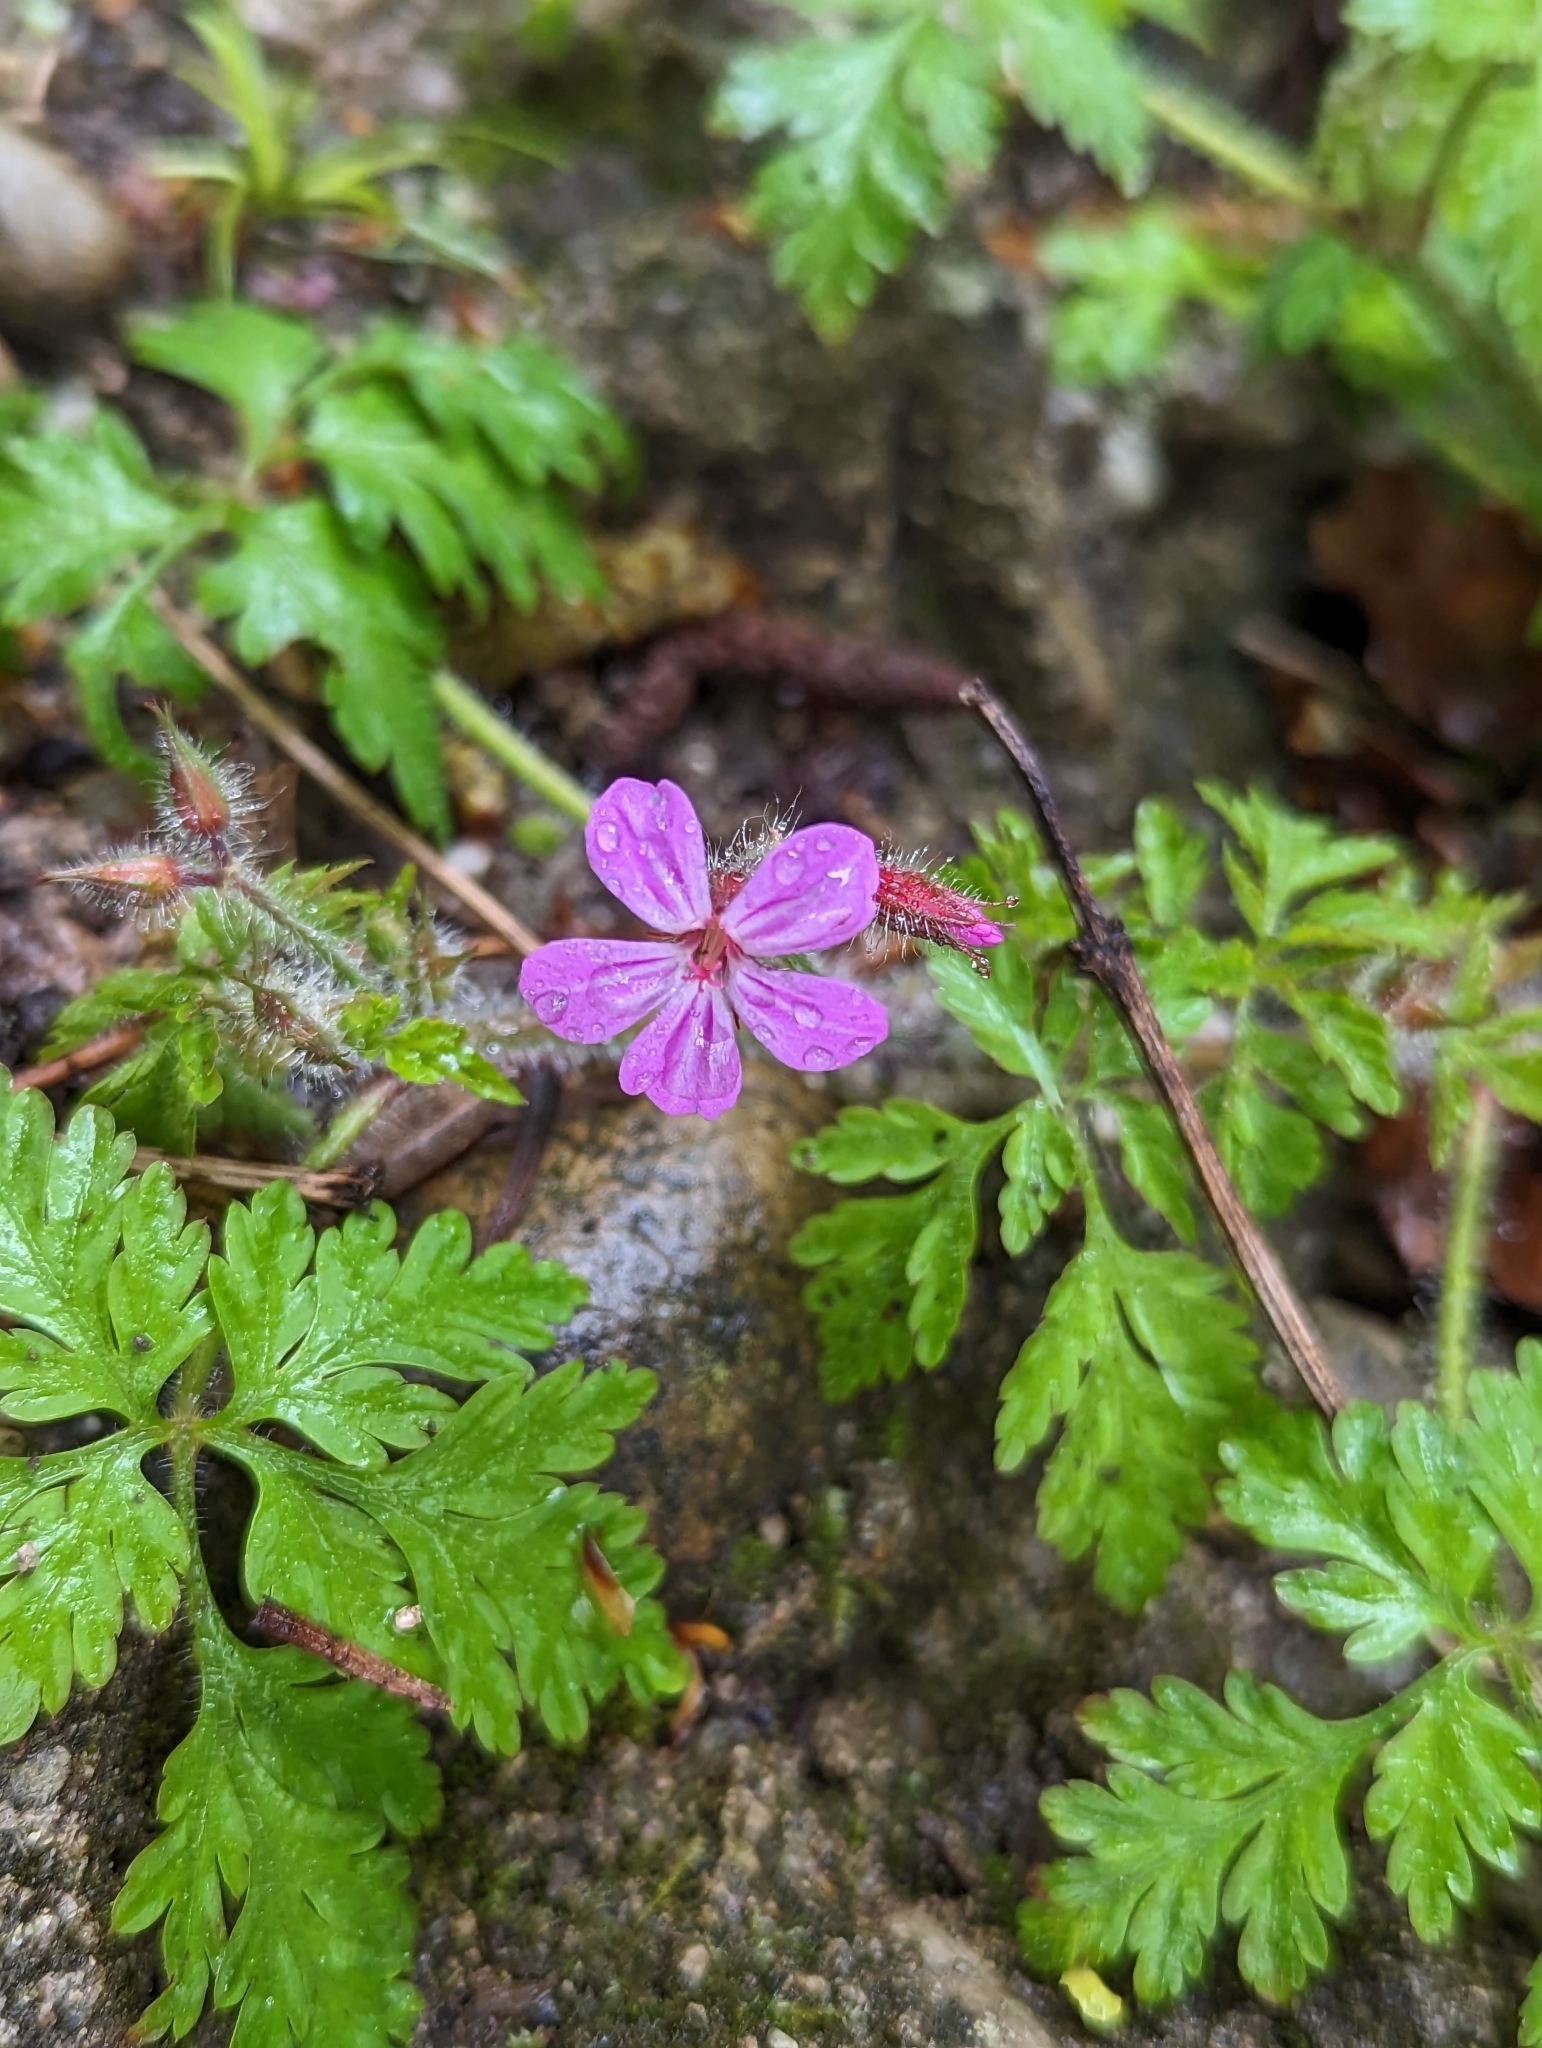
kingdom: Plantae
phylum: Tracheophyta
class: Magnoliopsida
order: Geraniales
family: Geraniaceae
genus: Geranium
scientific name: Geranium robertianum
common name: Herb-robert
